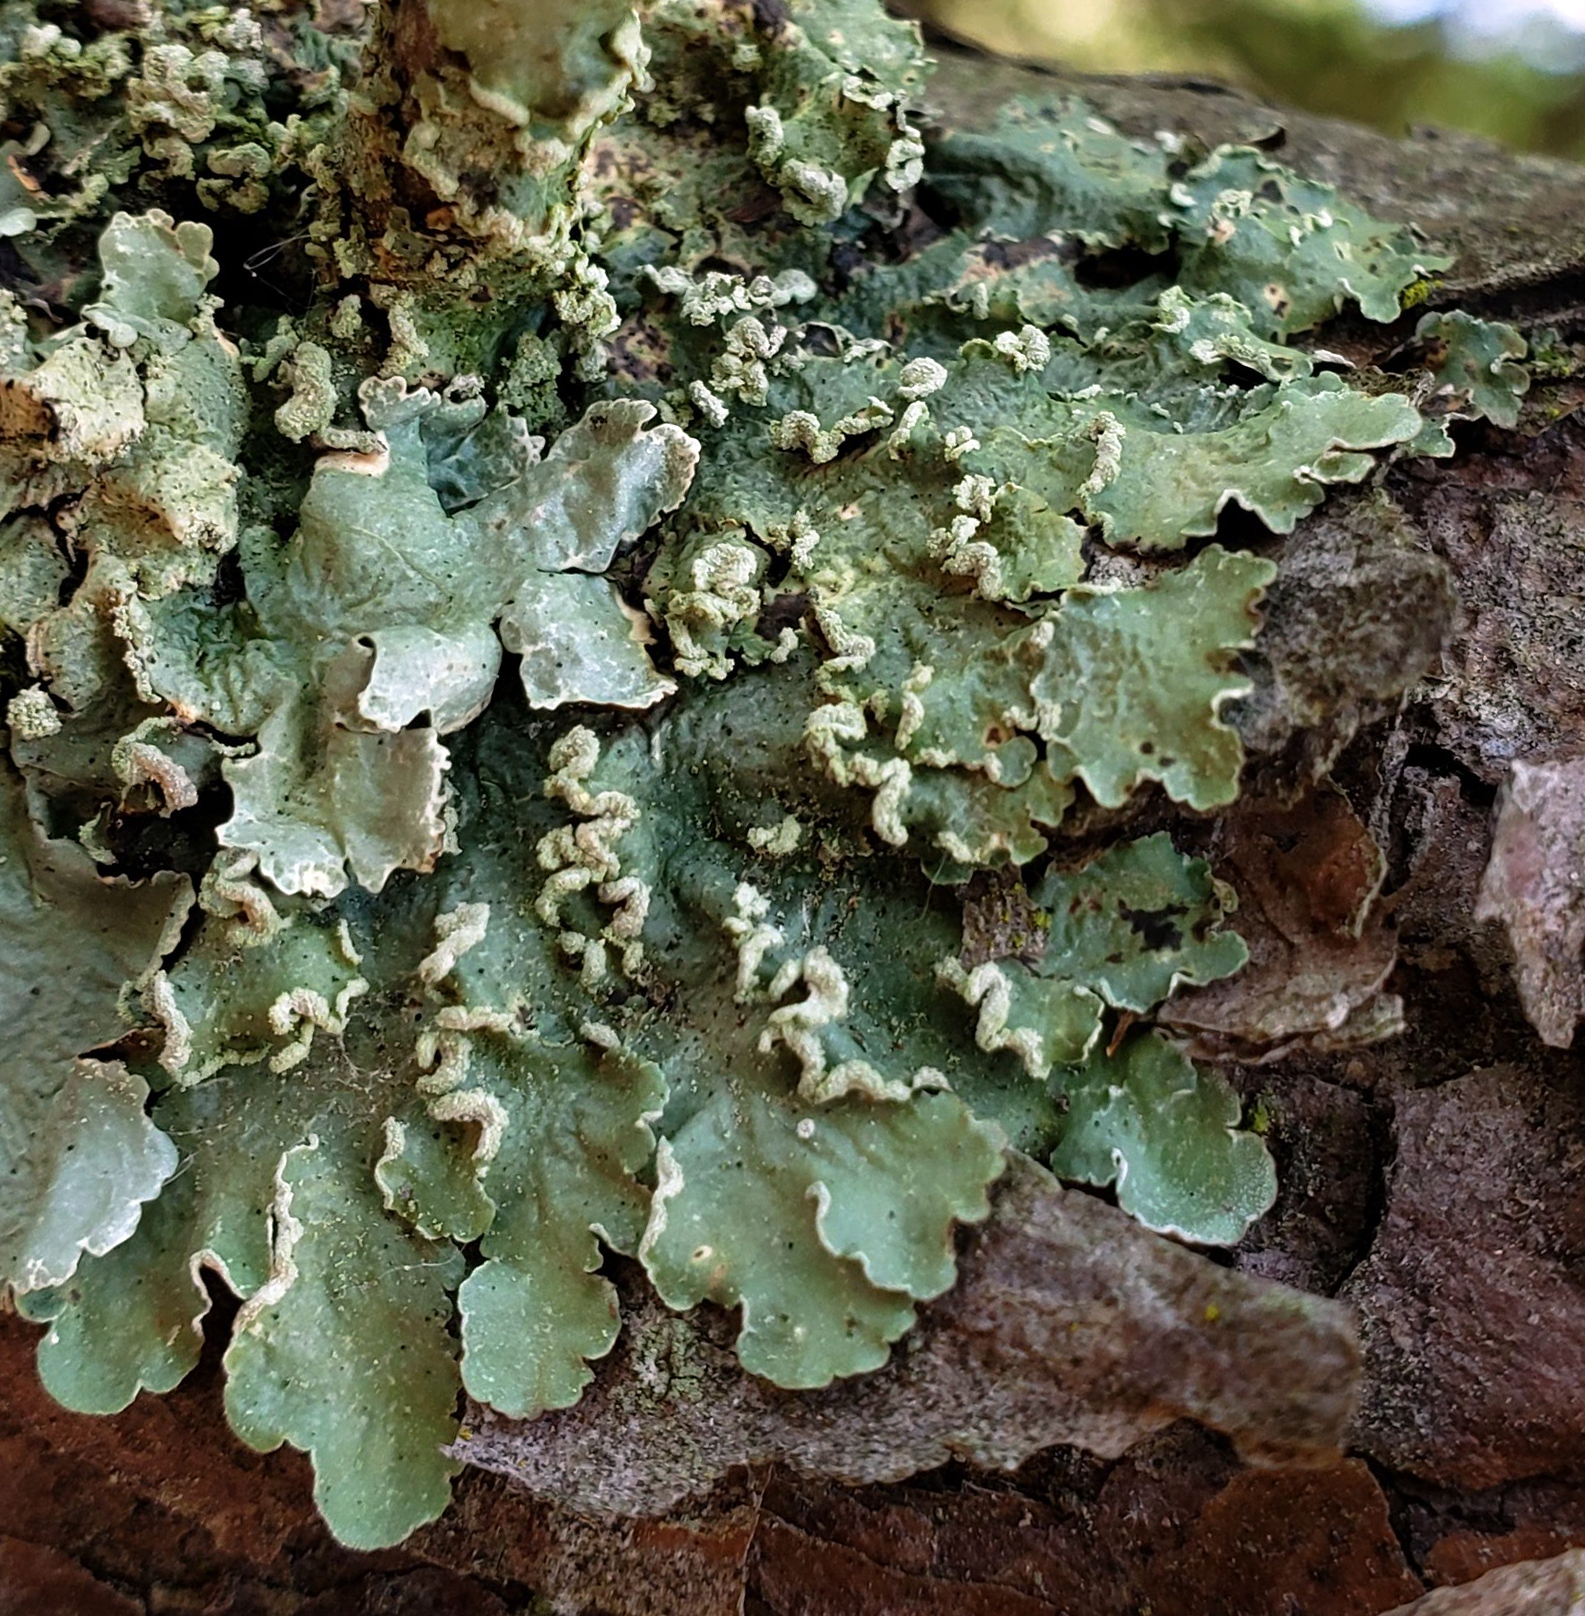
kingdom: Fungi
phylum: Ascomycota
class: Lecanoromycetes
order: Lecanorales
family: Parmeliaceae
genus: Flavopunctelia
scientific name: Flavopunctelia soredica
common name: Powder-edged speckled greenshield
